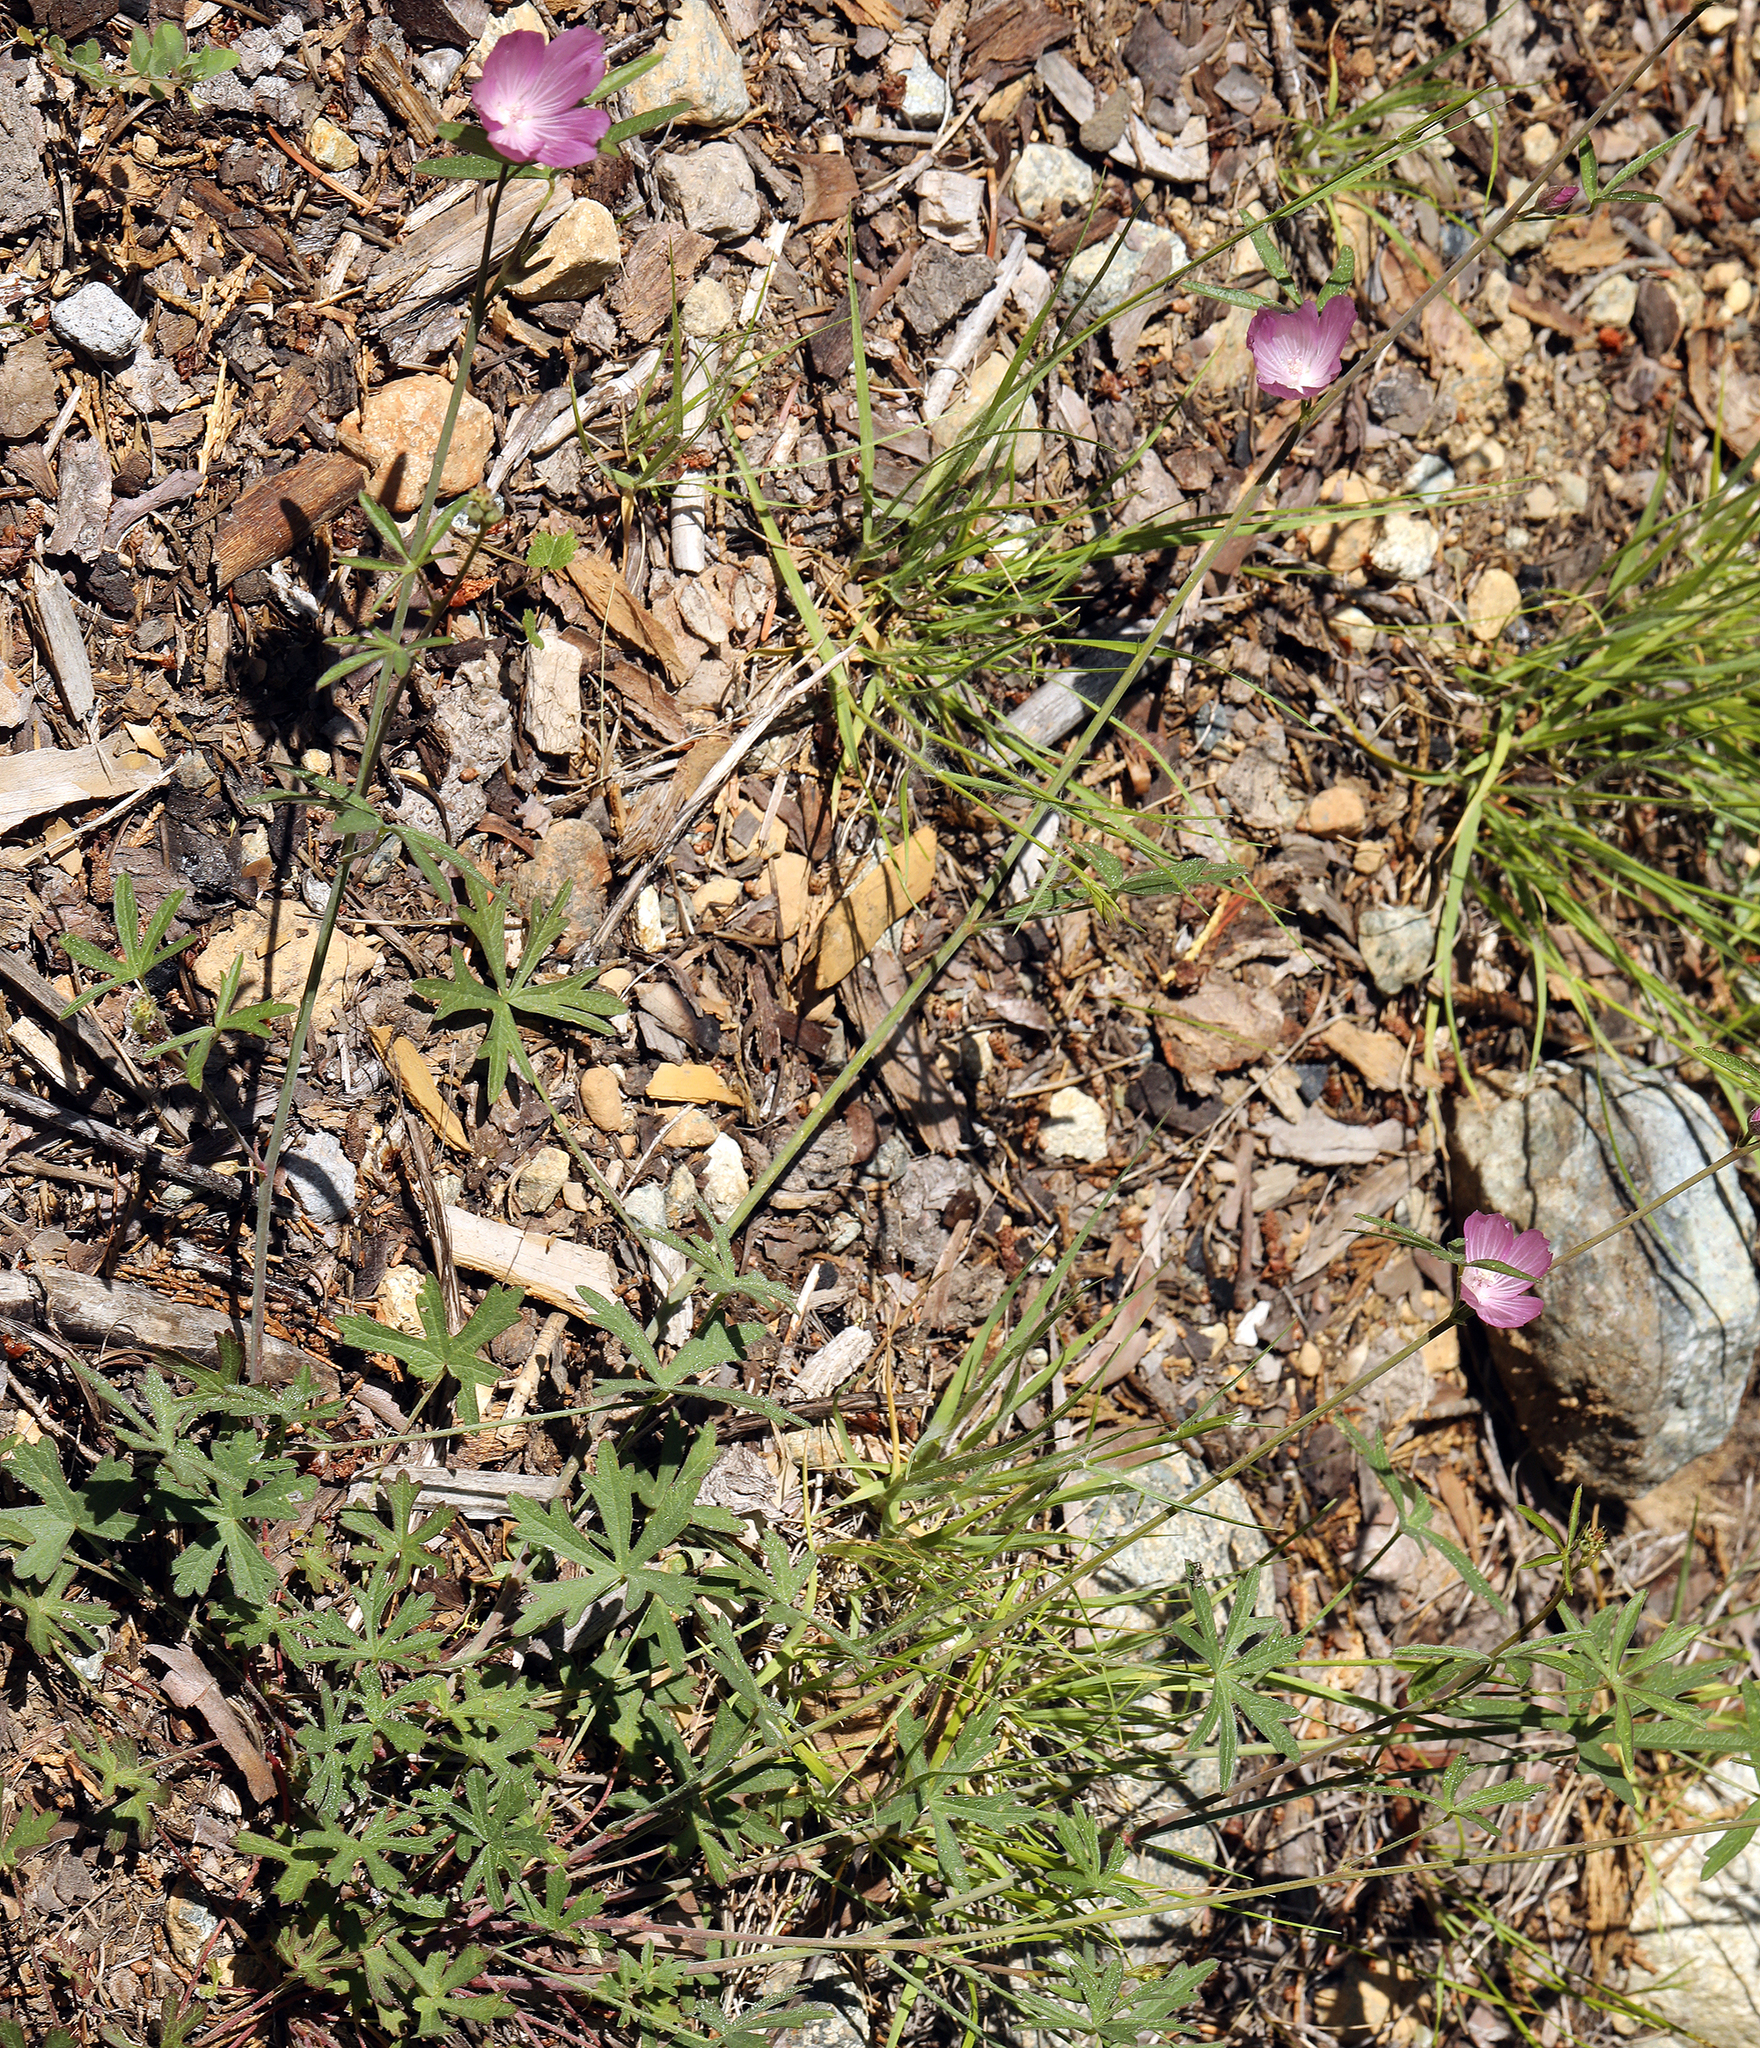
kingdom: Plantae
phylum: Tracheophyta
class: Magnoliopsida
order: Malvales
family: Malvaceae
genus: Sidalcea
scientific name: Sidalcea glaucescens
